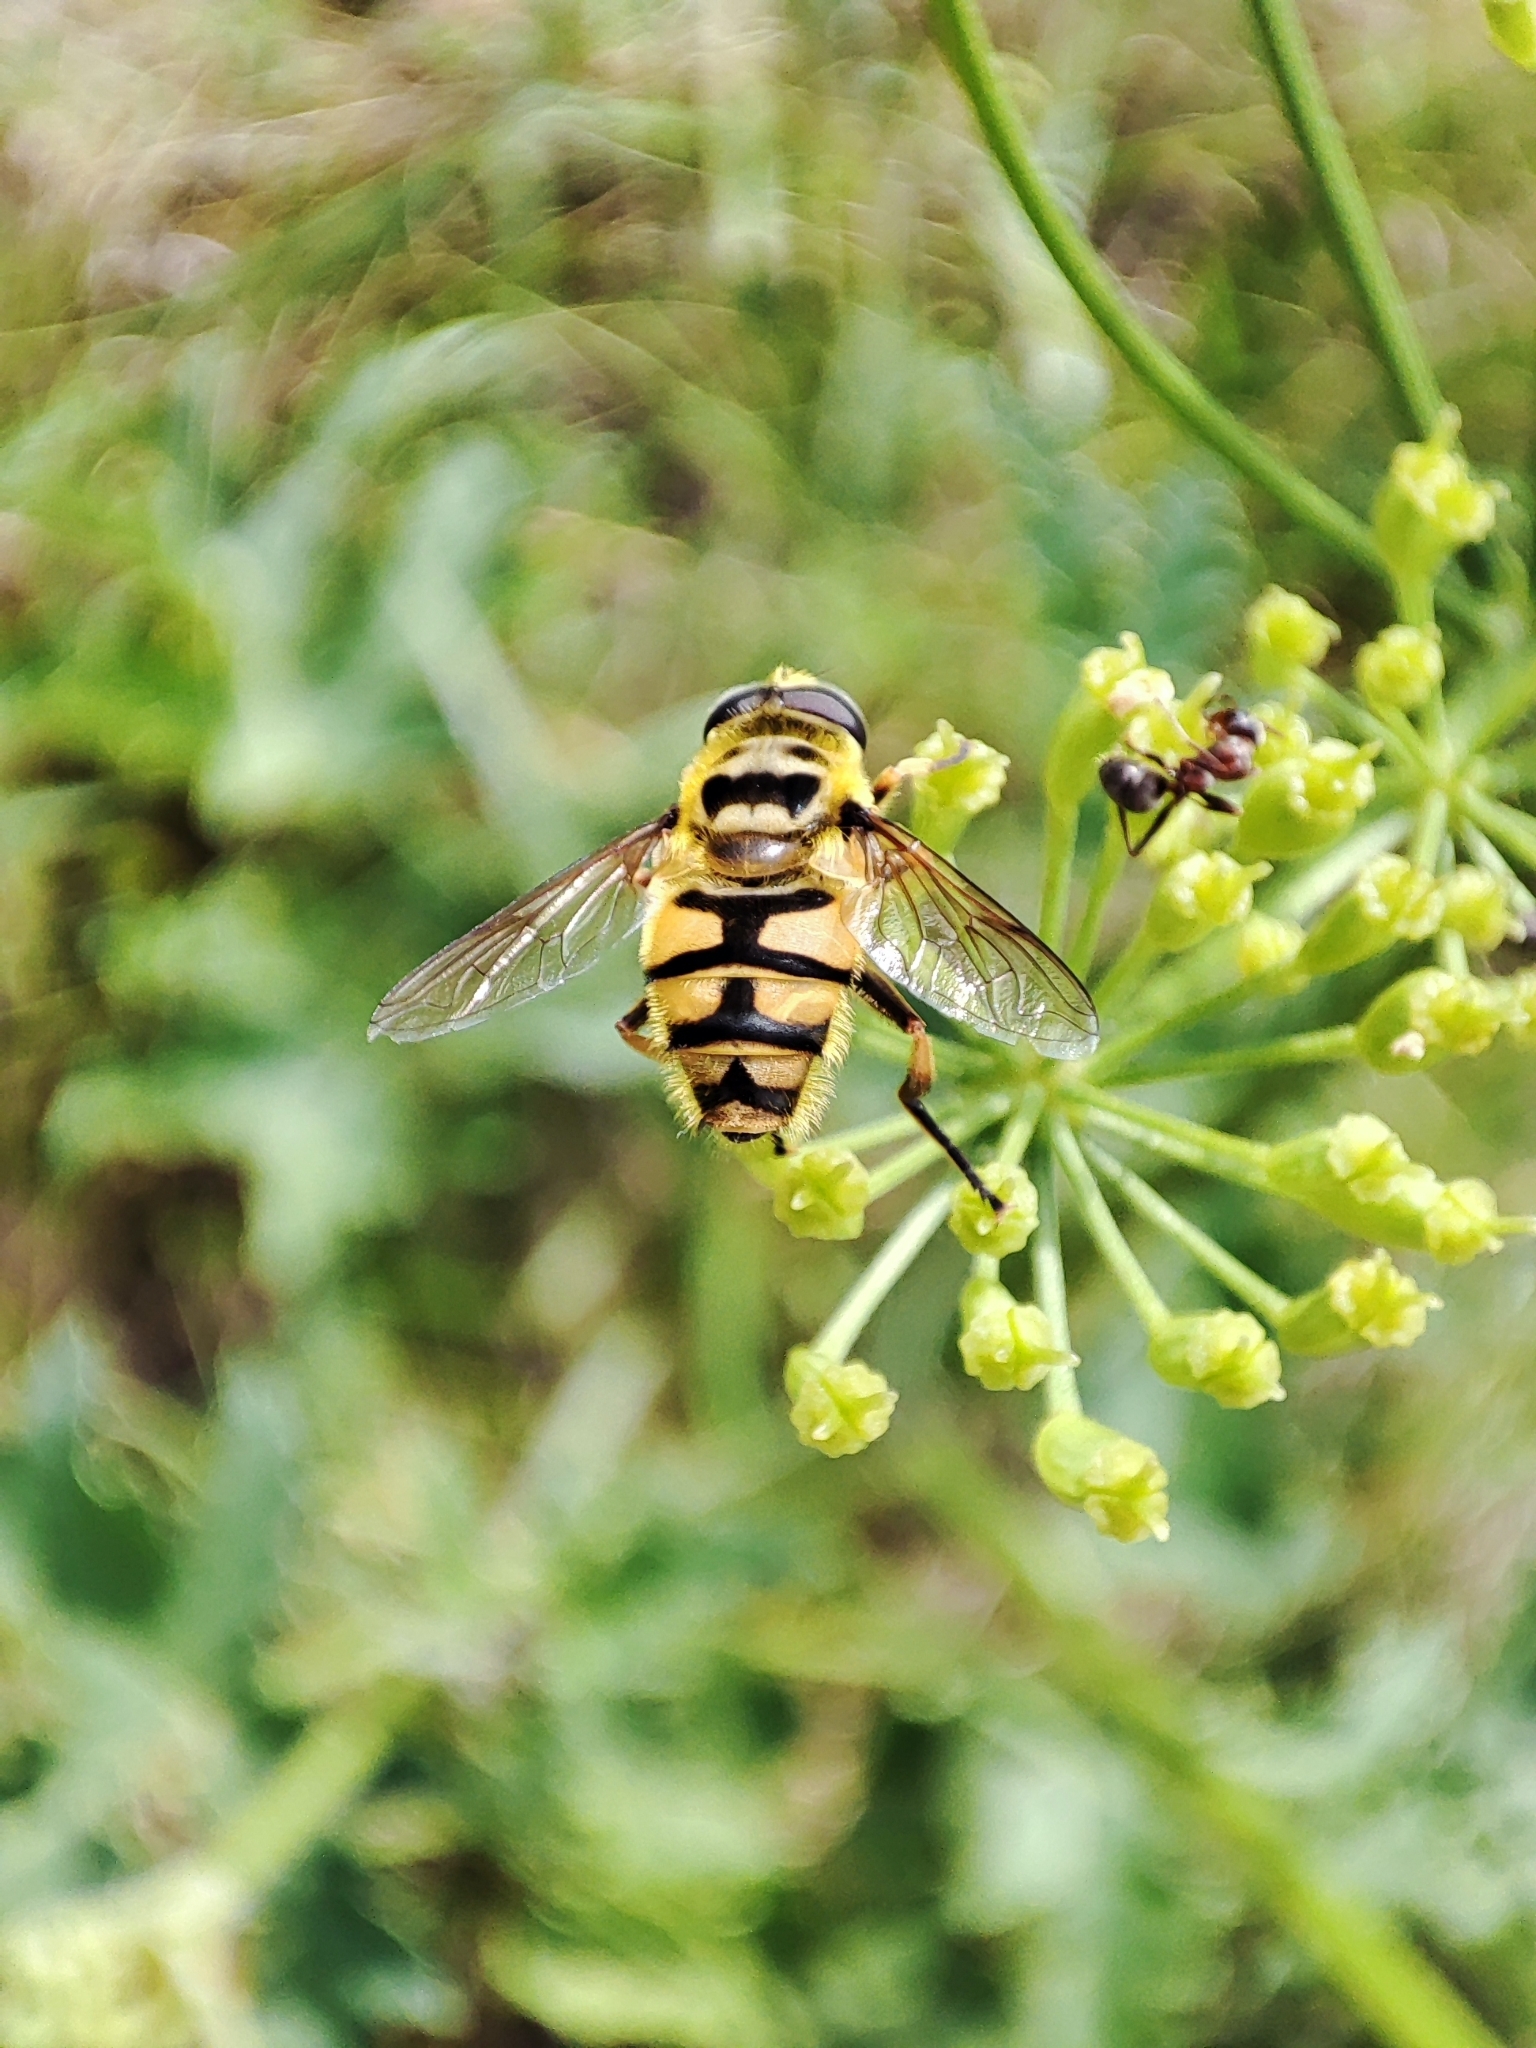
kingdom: Animalia
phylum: Arthropoda
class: Insecta
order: Diptera
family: Syrphidae
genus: Myathropa
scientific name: Myathropa florea
